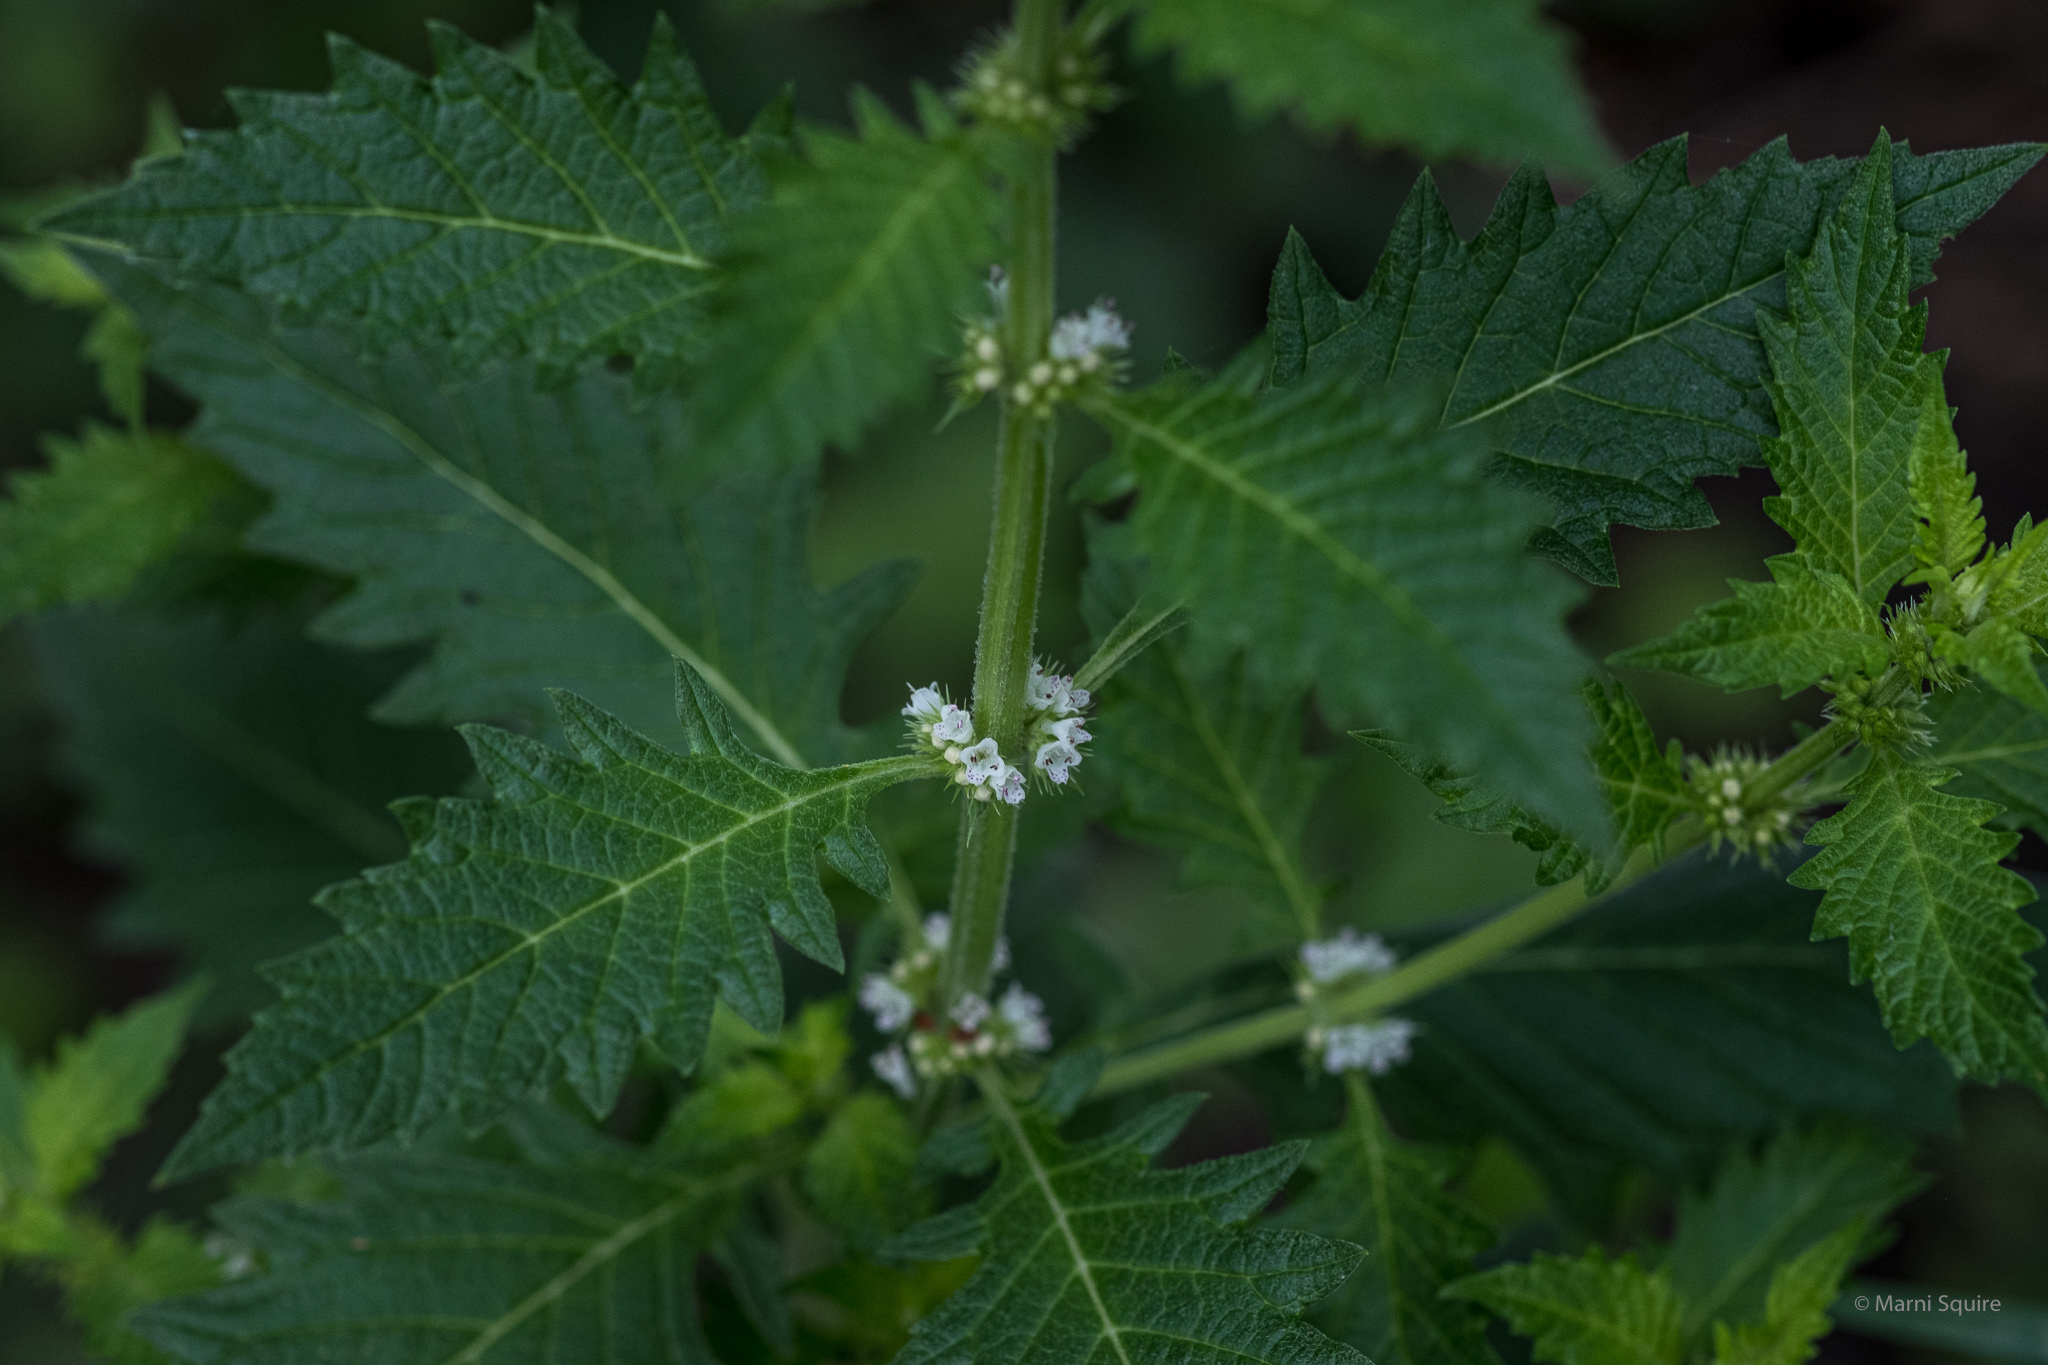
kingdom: Plantae
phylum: Tracheophyta
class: Magnoliopsida
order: Lamiales
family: Lamiaceae
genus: Lycopus
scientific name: Lycopus europaeus
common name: European bugleweed
